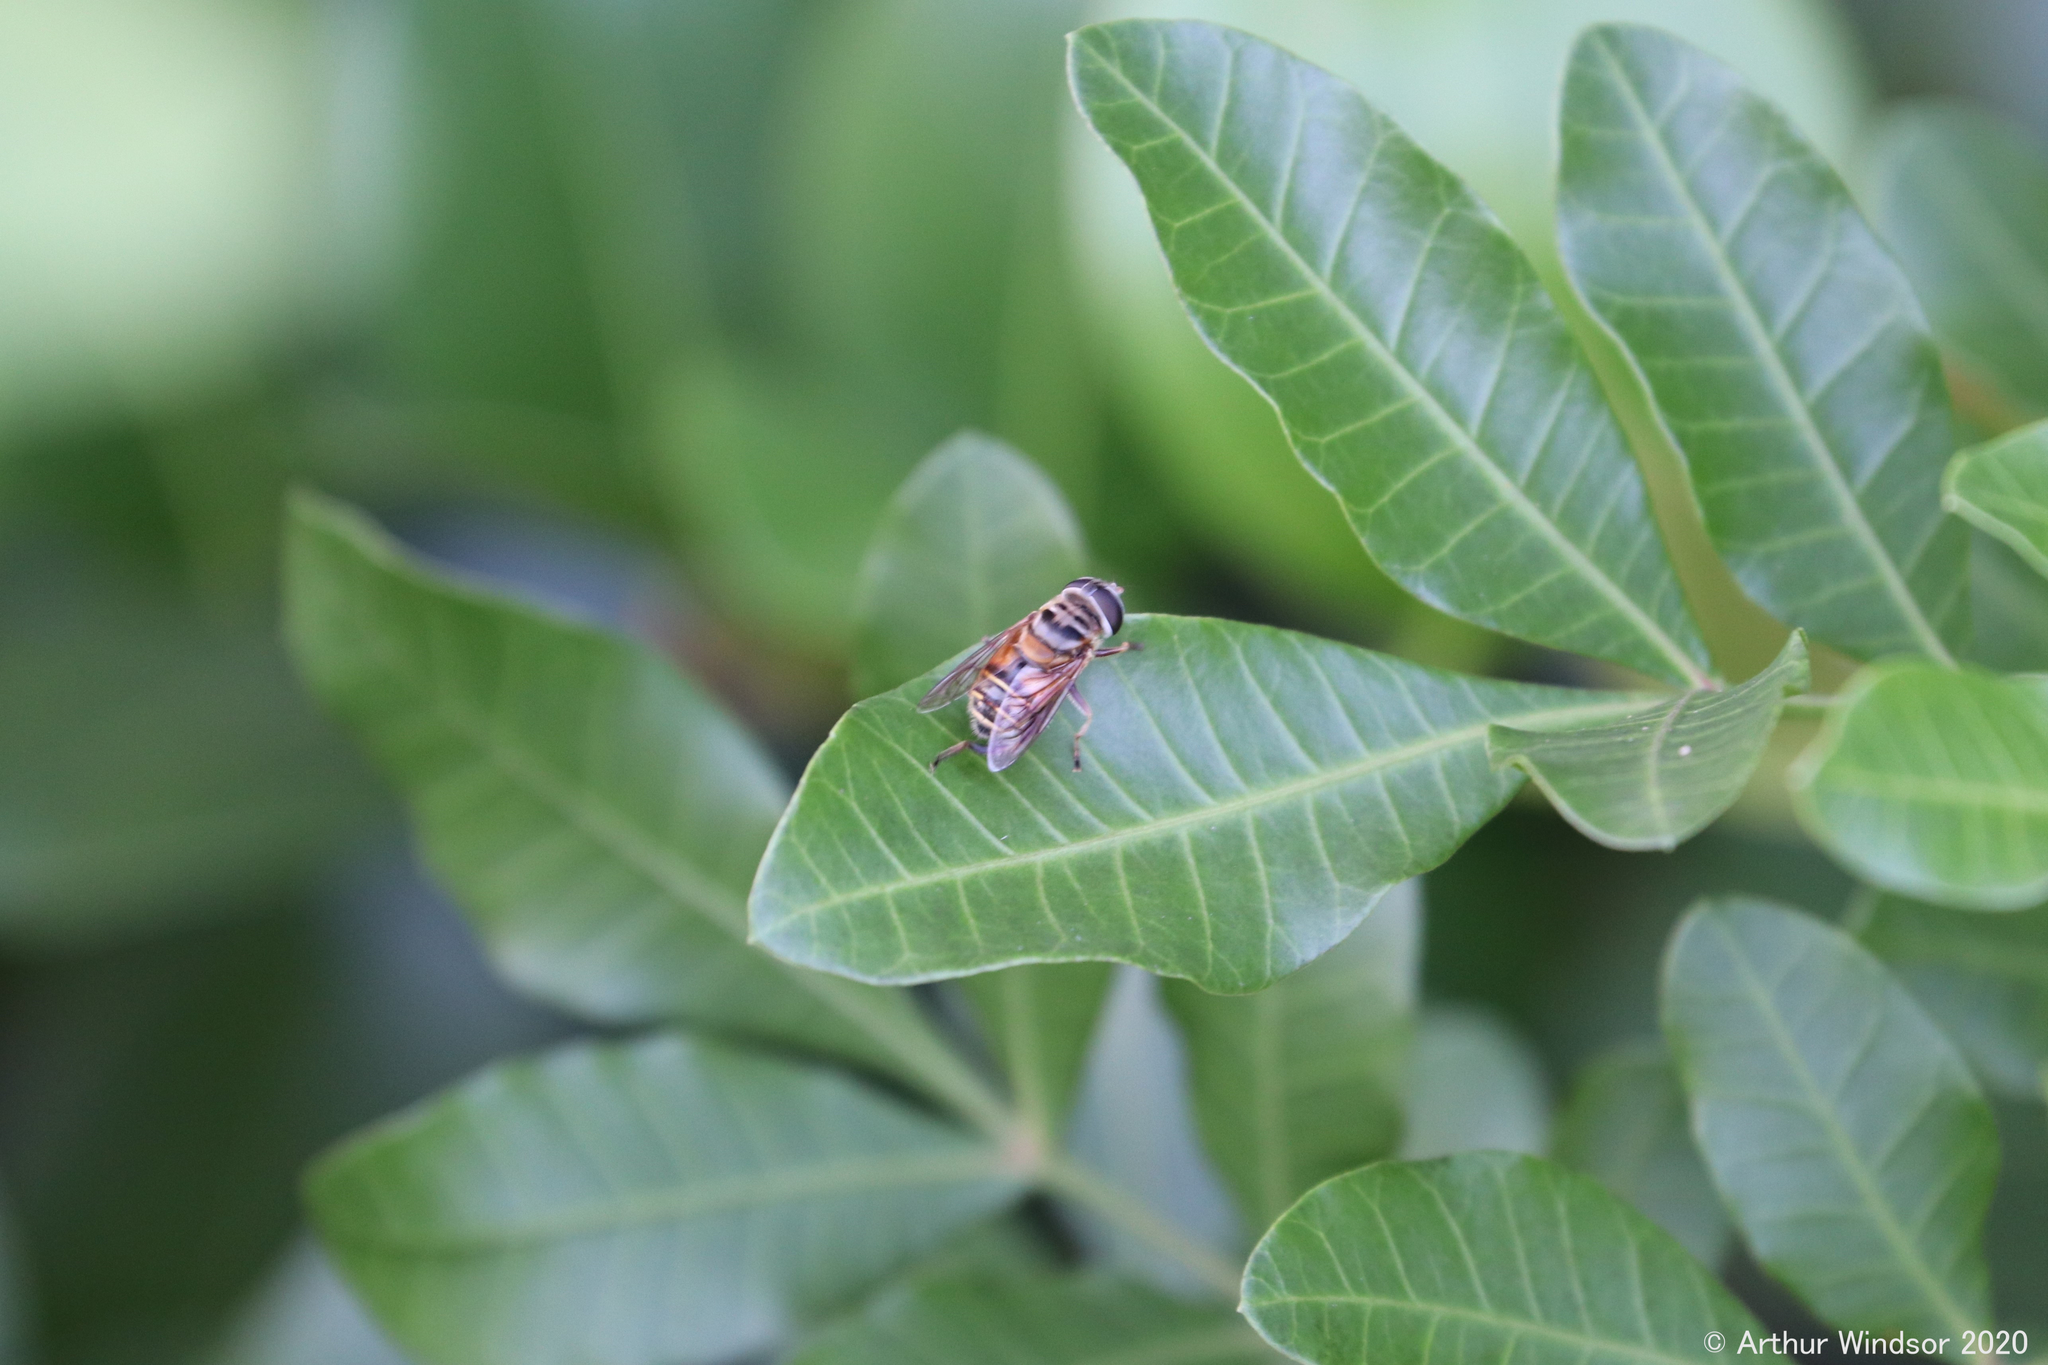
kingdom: Animalia
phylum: Arthropoda
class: Insecta
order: Diptera
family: Syrphidae
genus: Palpada
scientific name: Palpada vinetorum
